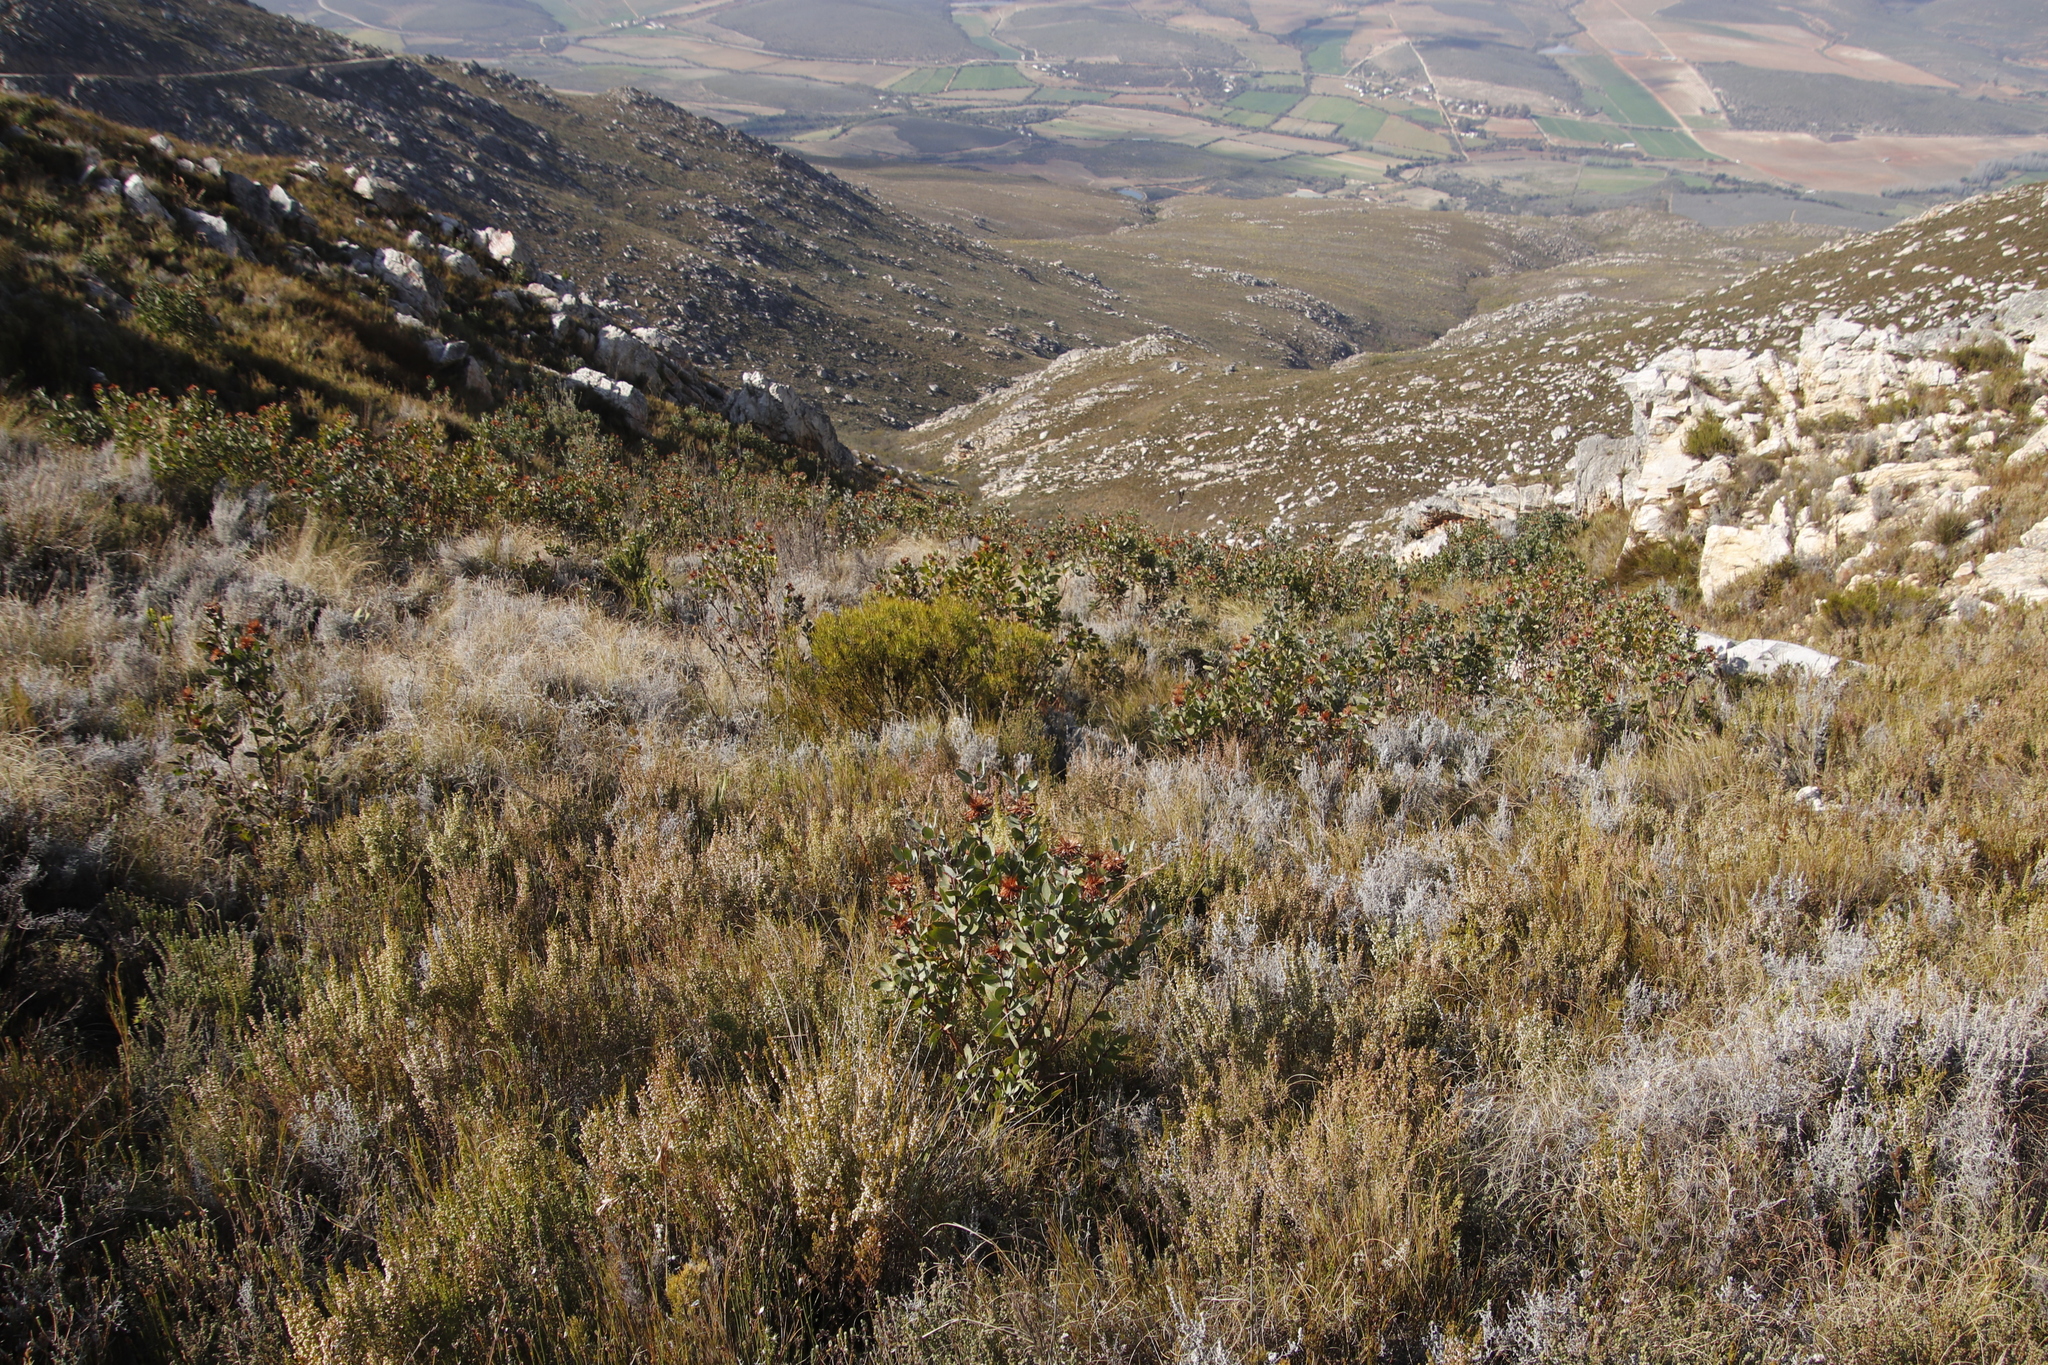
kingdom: Plantae
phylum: Tracheophyta
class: Magnoliopsida
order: Proteales
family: Proteaceae
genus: Protea
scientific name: Protea punctata
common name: Water sugarbush
